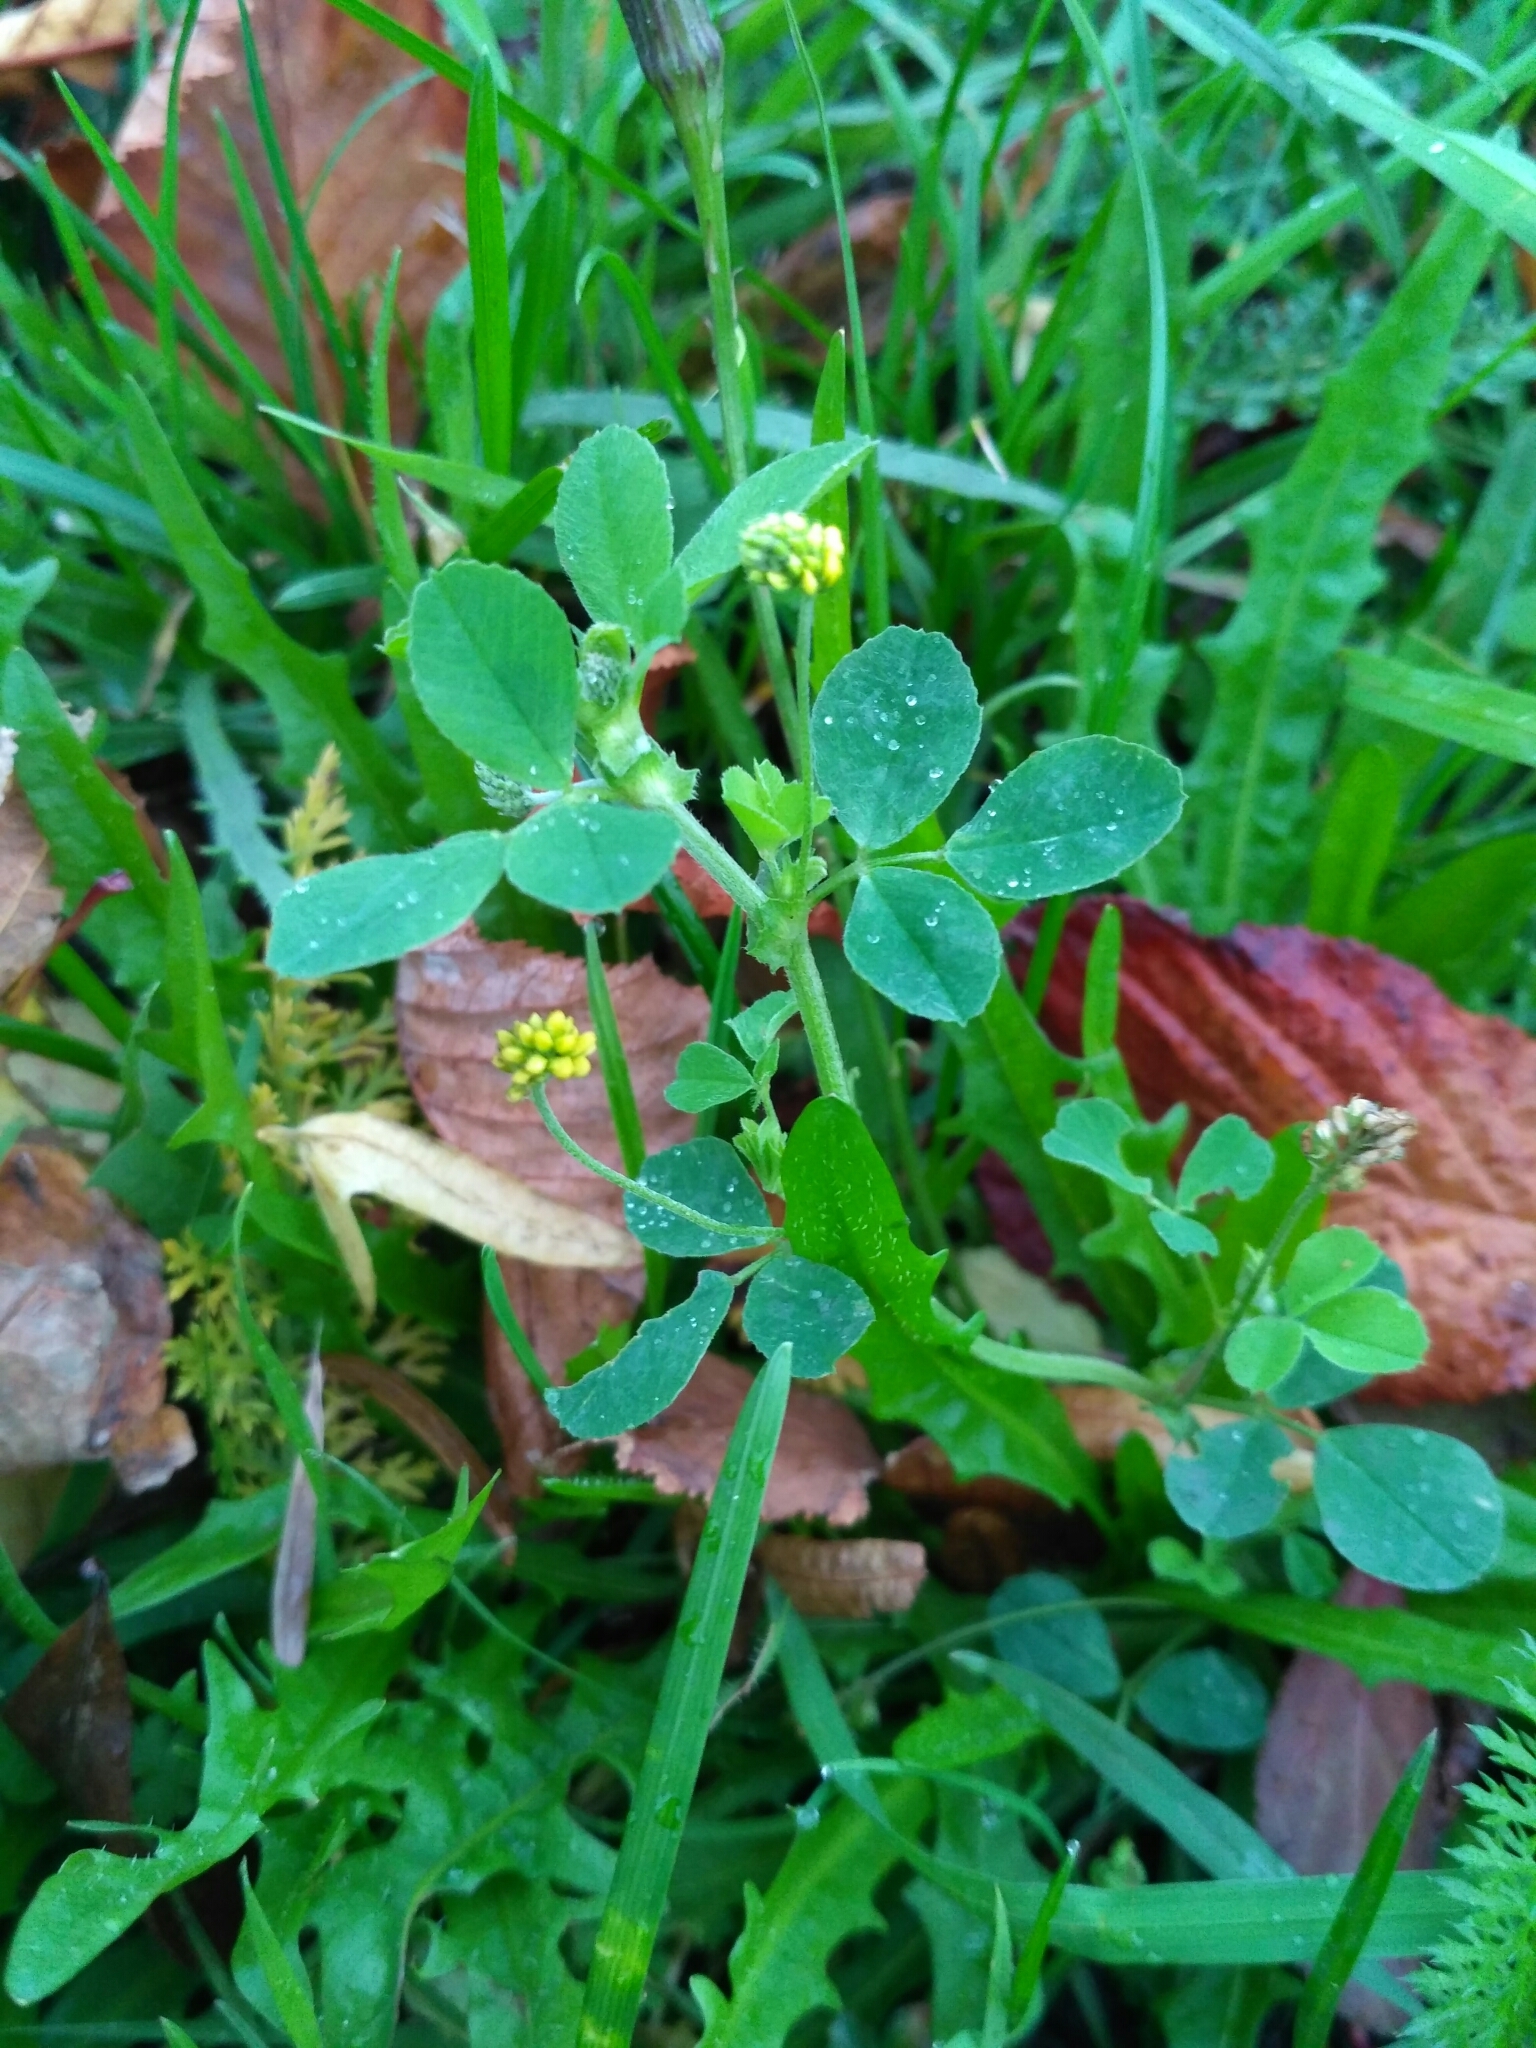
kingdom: Plantae
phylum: Tracheophyta
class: Magnoliopsida
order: Fabales
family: Fabaceae
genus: Medicago
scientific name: Medicago lupulina
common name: Black medick
